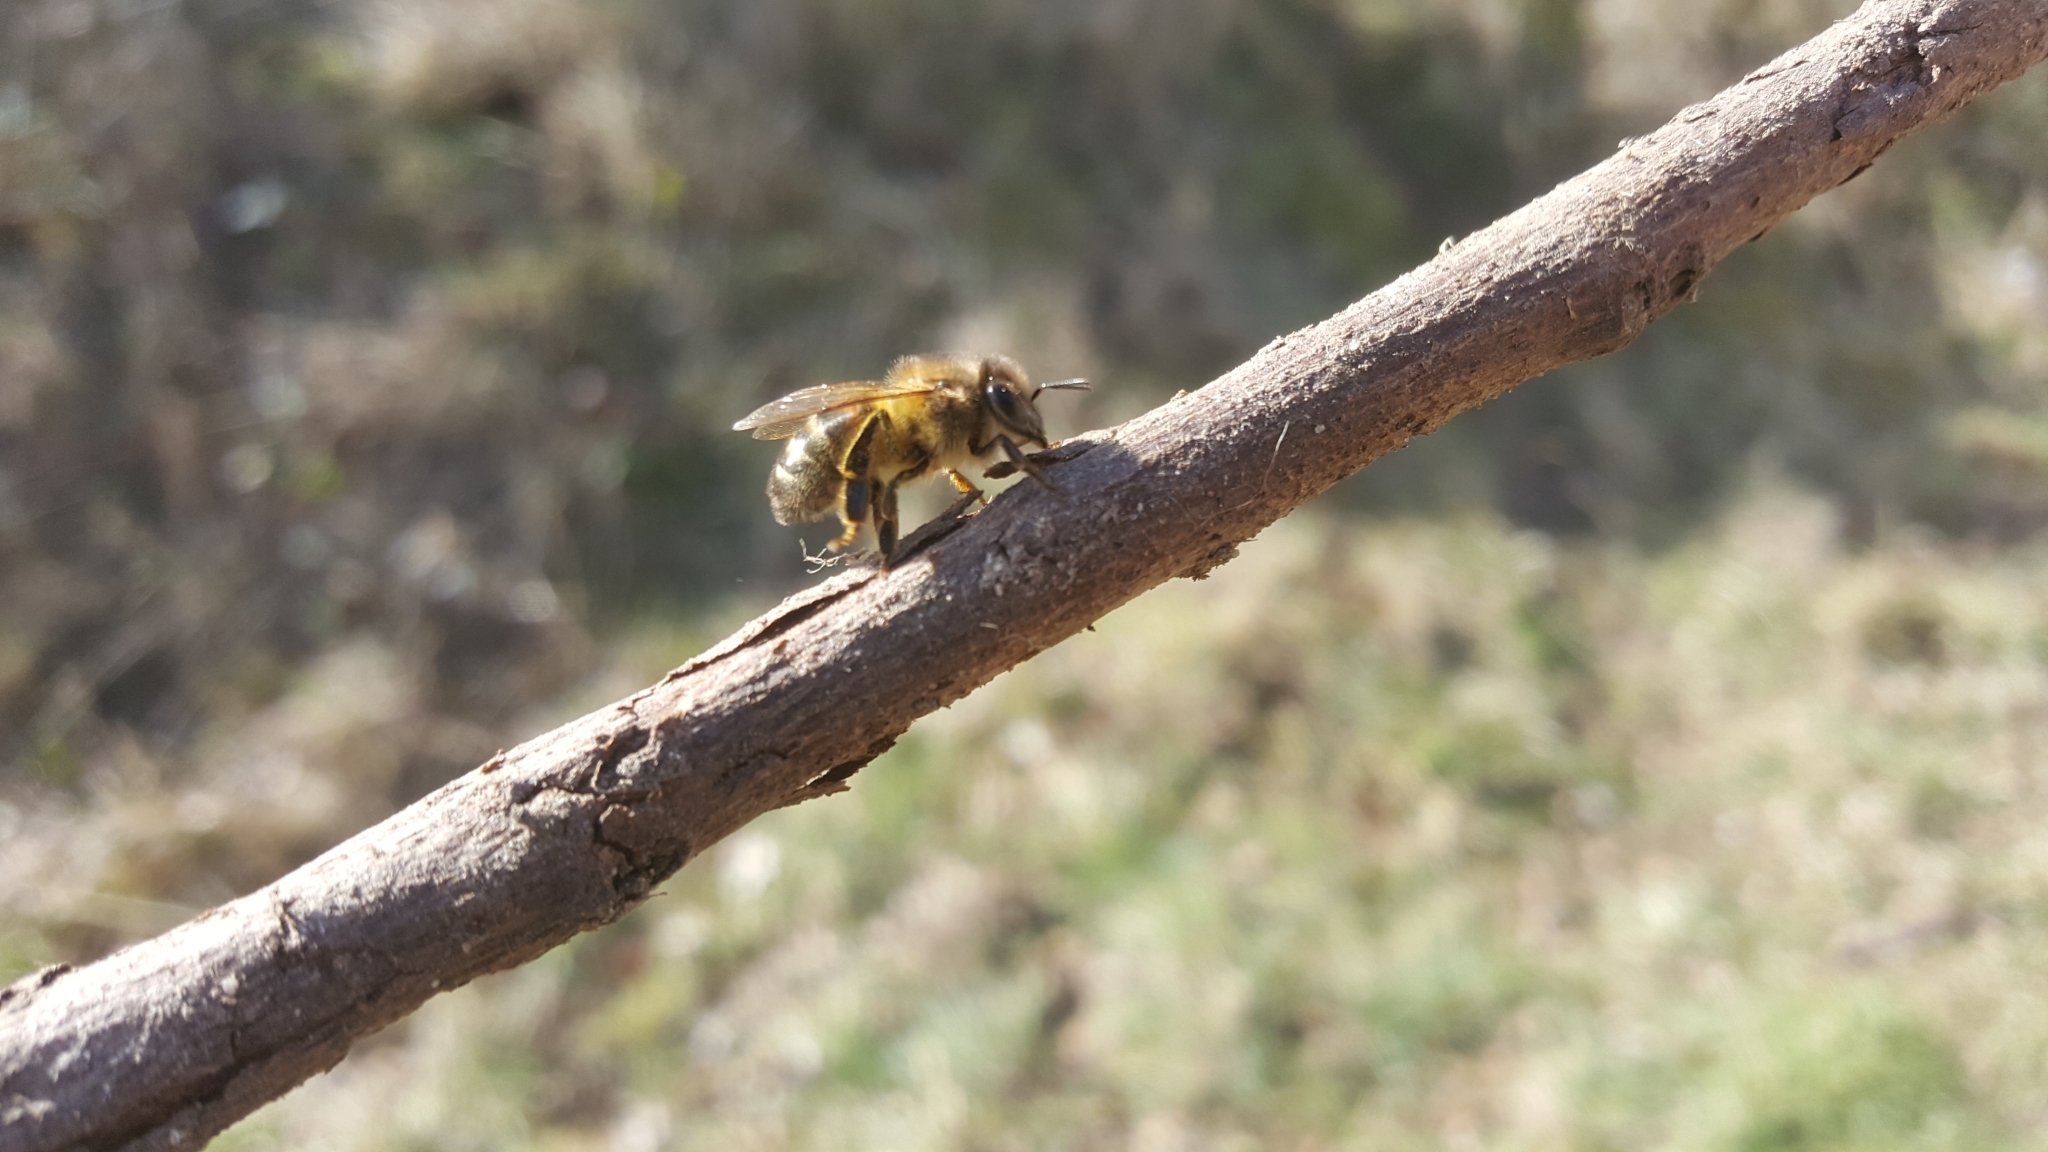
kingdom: Animalia
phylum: Arthropoda
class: Insecta
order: Hymenoptera
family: Apidae
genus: Apis
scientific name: Apis mellifera
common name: Honey bee
